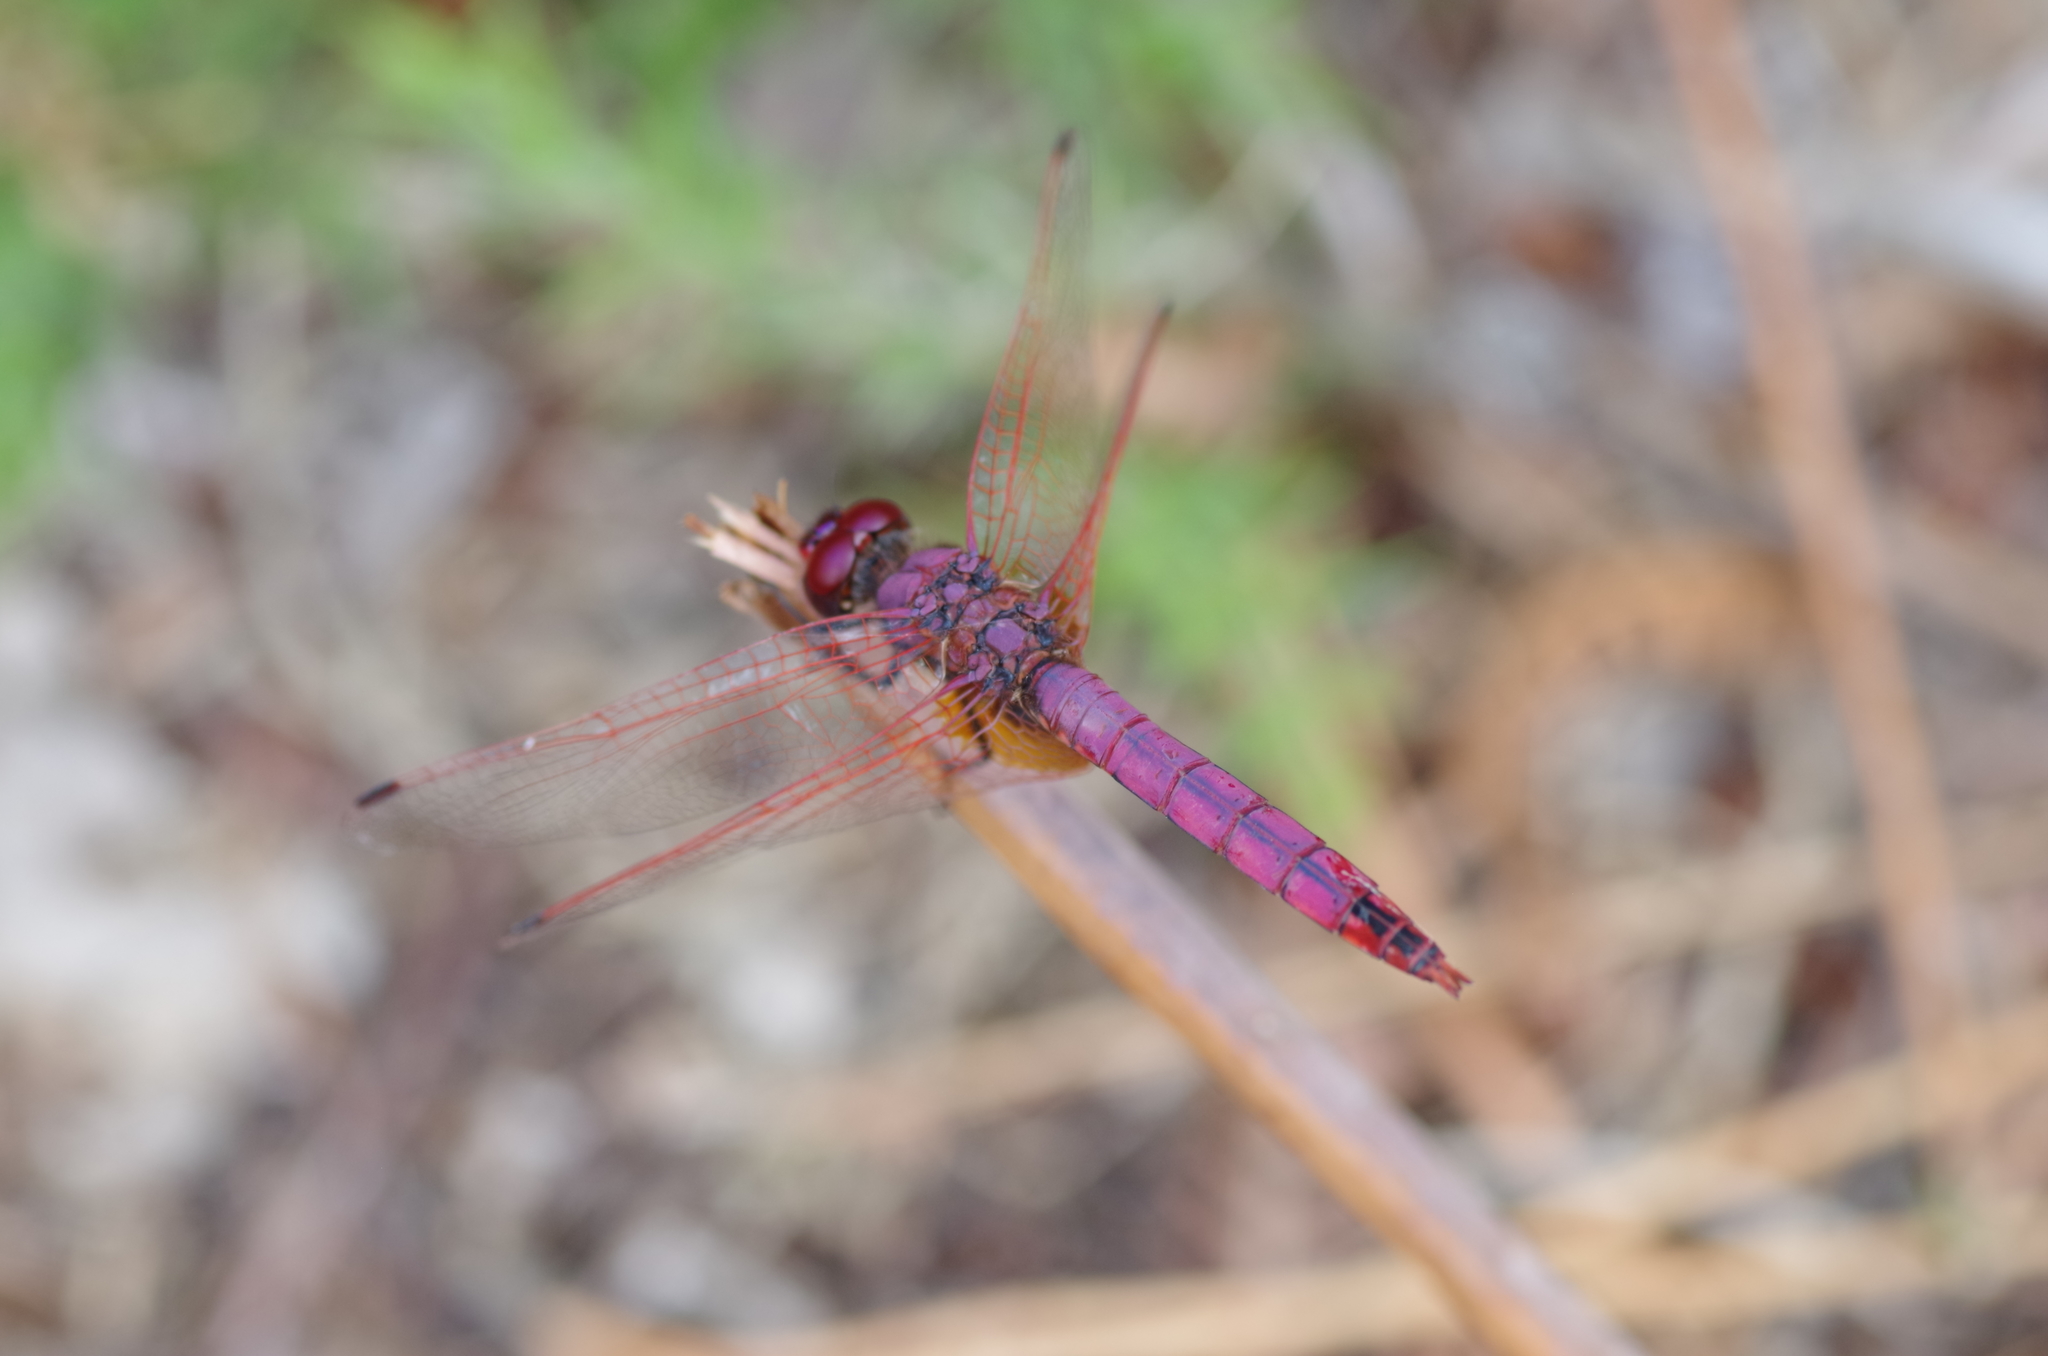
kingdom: Animalia
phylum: Arthropoda
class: Insecta
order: Odonata
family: Libellulidae
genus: Trithemis
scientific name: Trithemis annulata
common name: Violet dropwing
